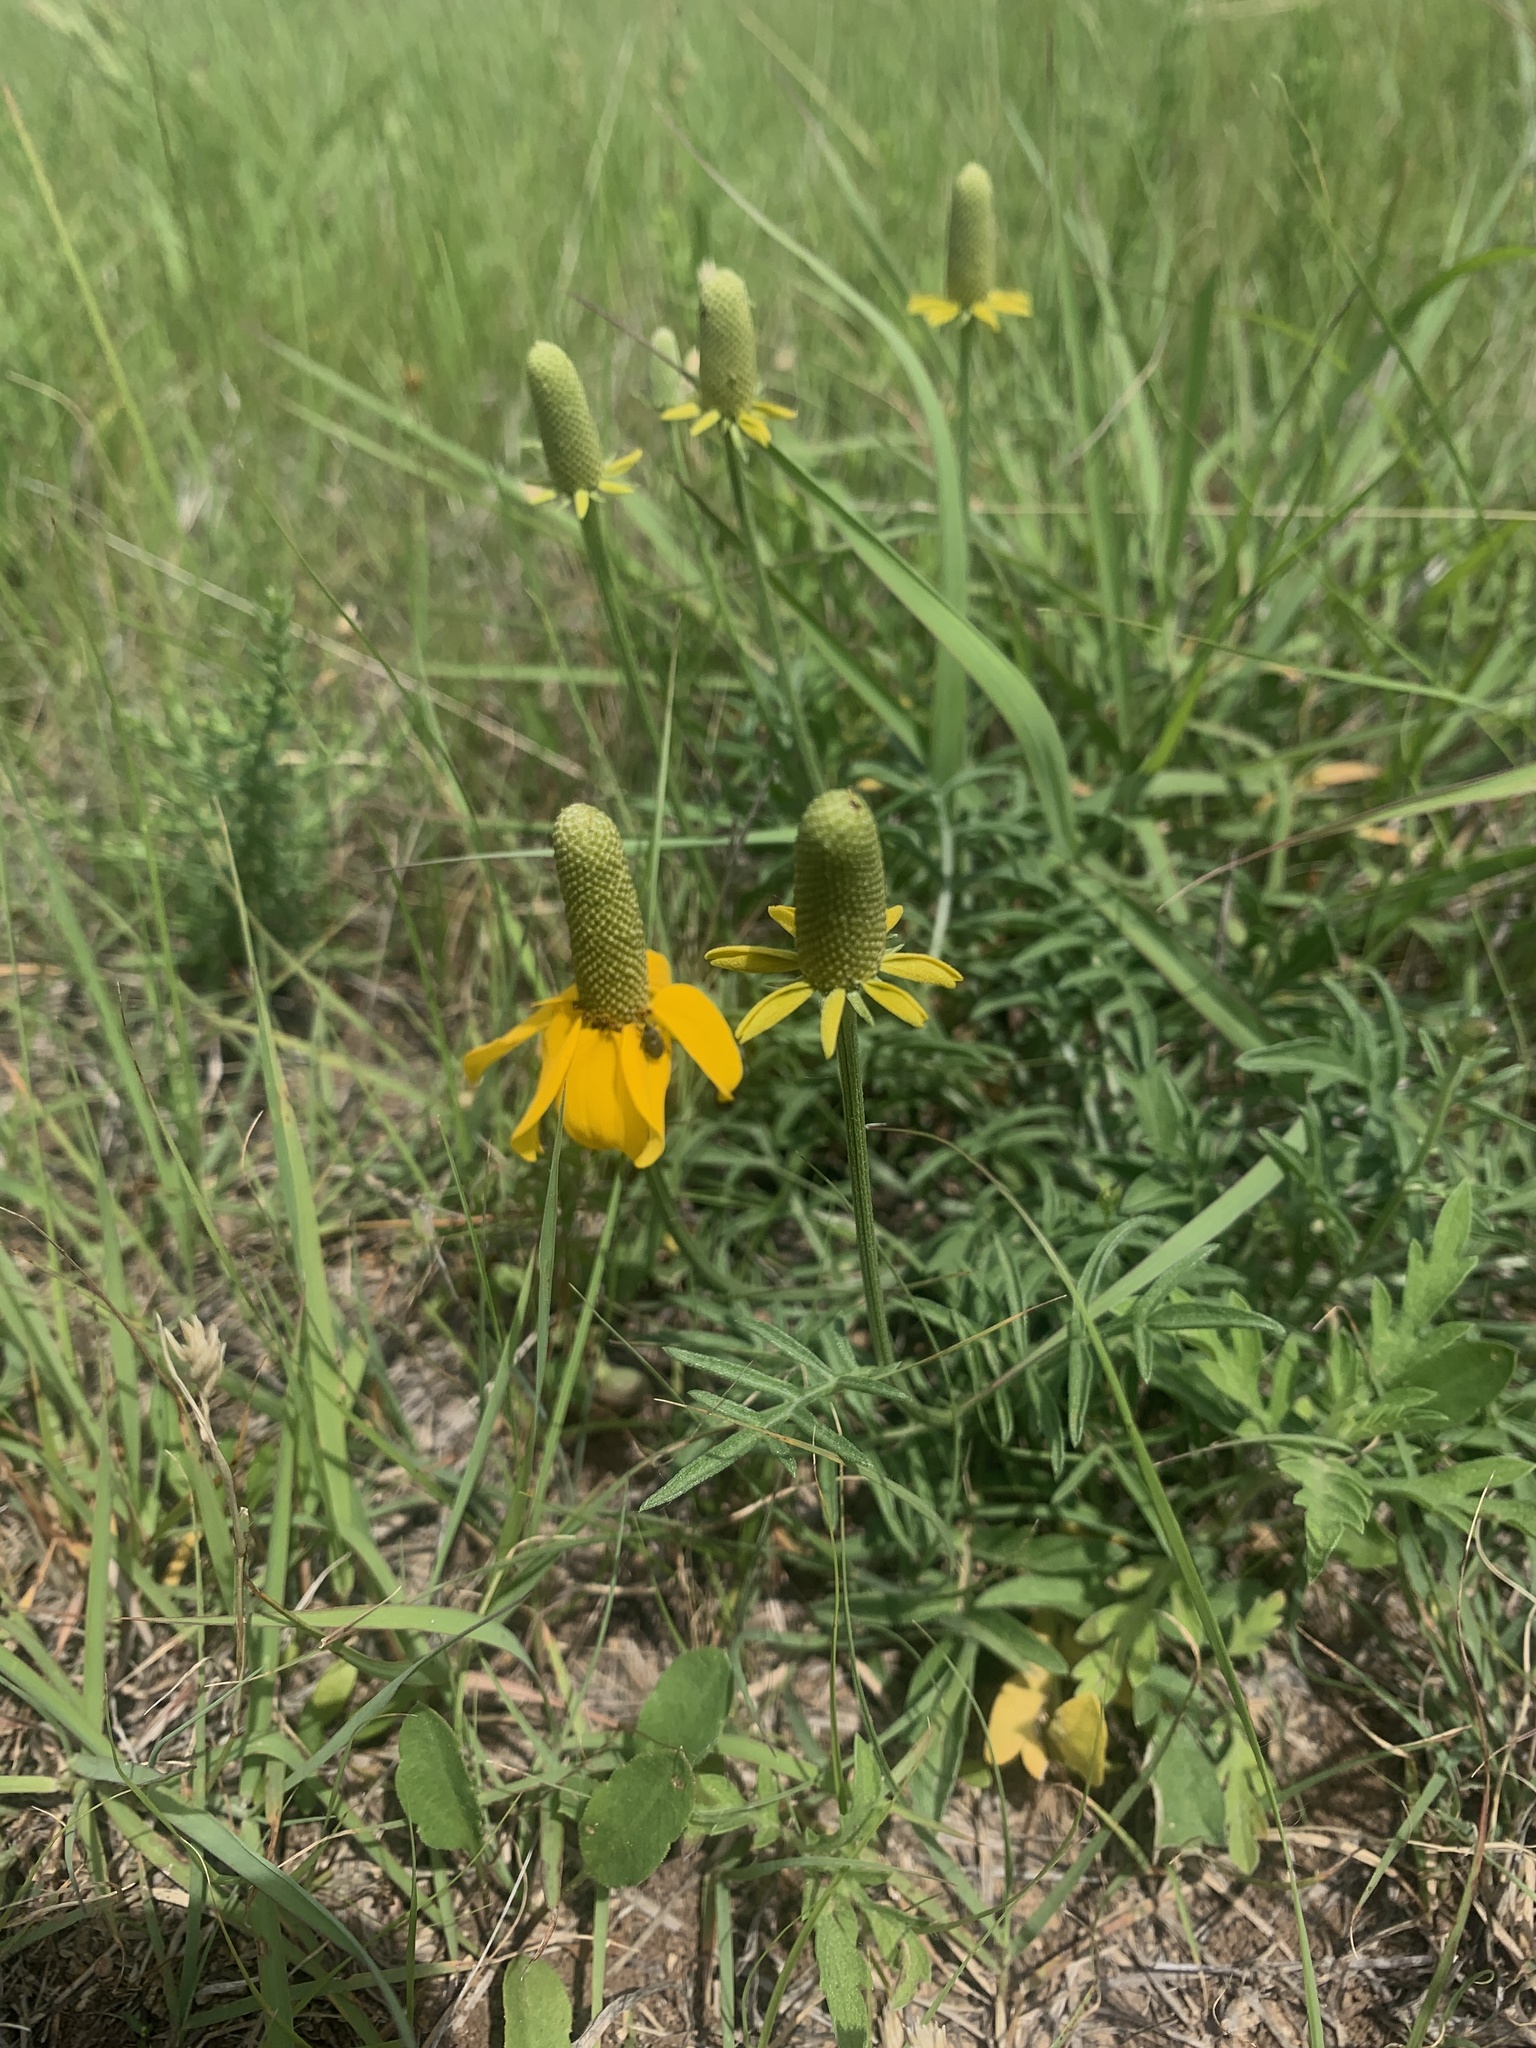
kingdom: Plantae
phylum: Tracheophyta
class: Magnoliopsida
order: Asterales
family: Asteraceae
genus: Ratibida
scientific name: Ratibida columnifera
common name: Prairie coneflower
